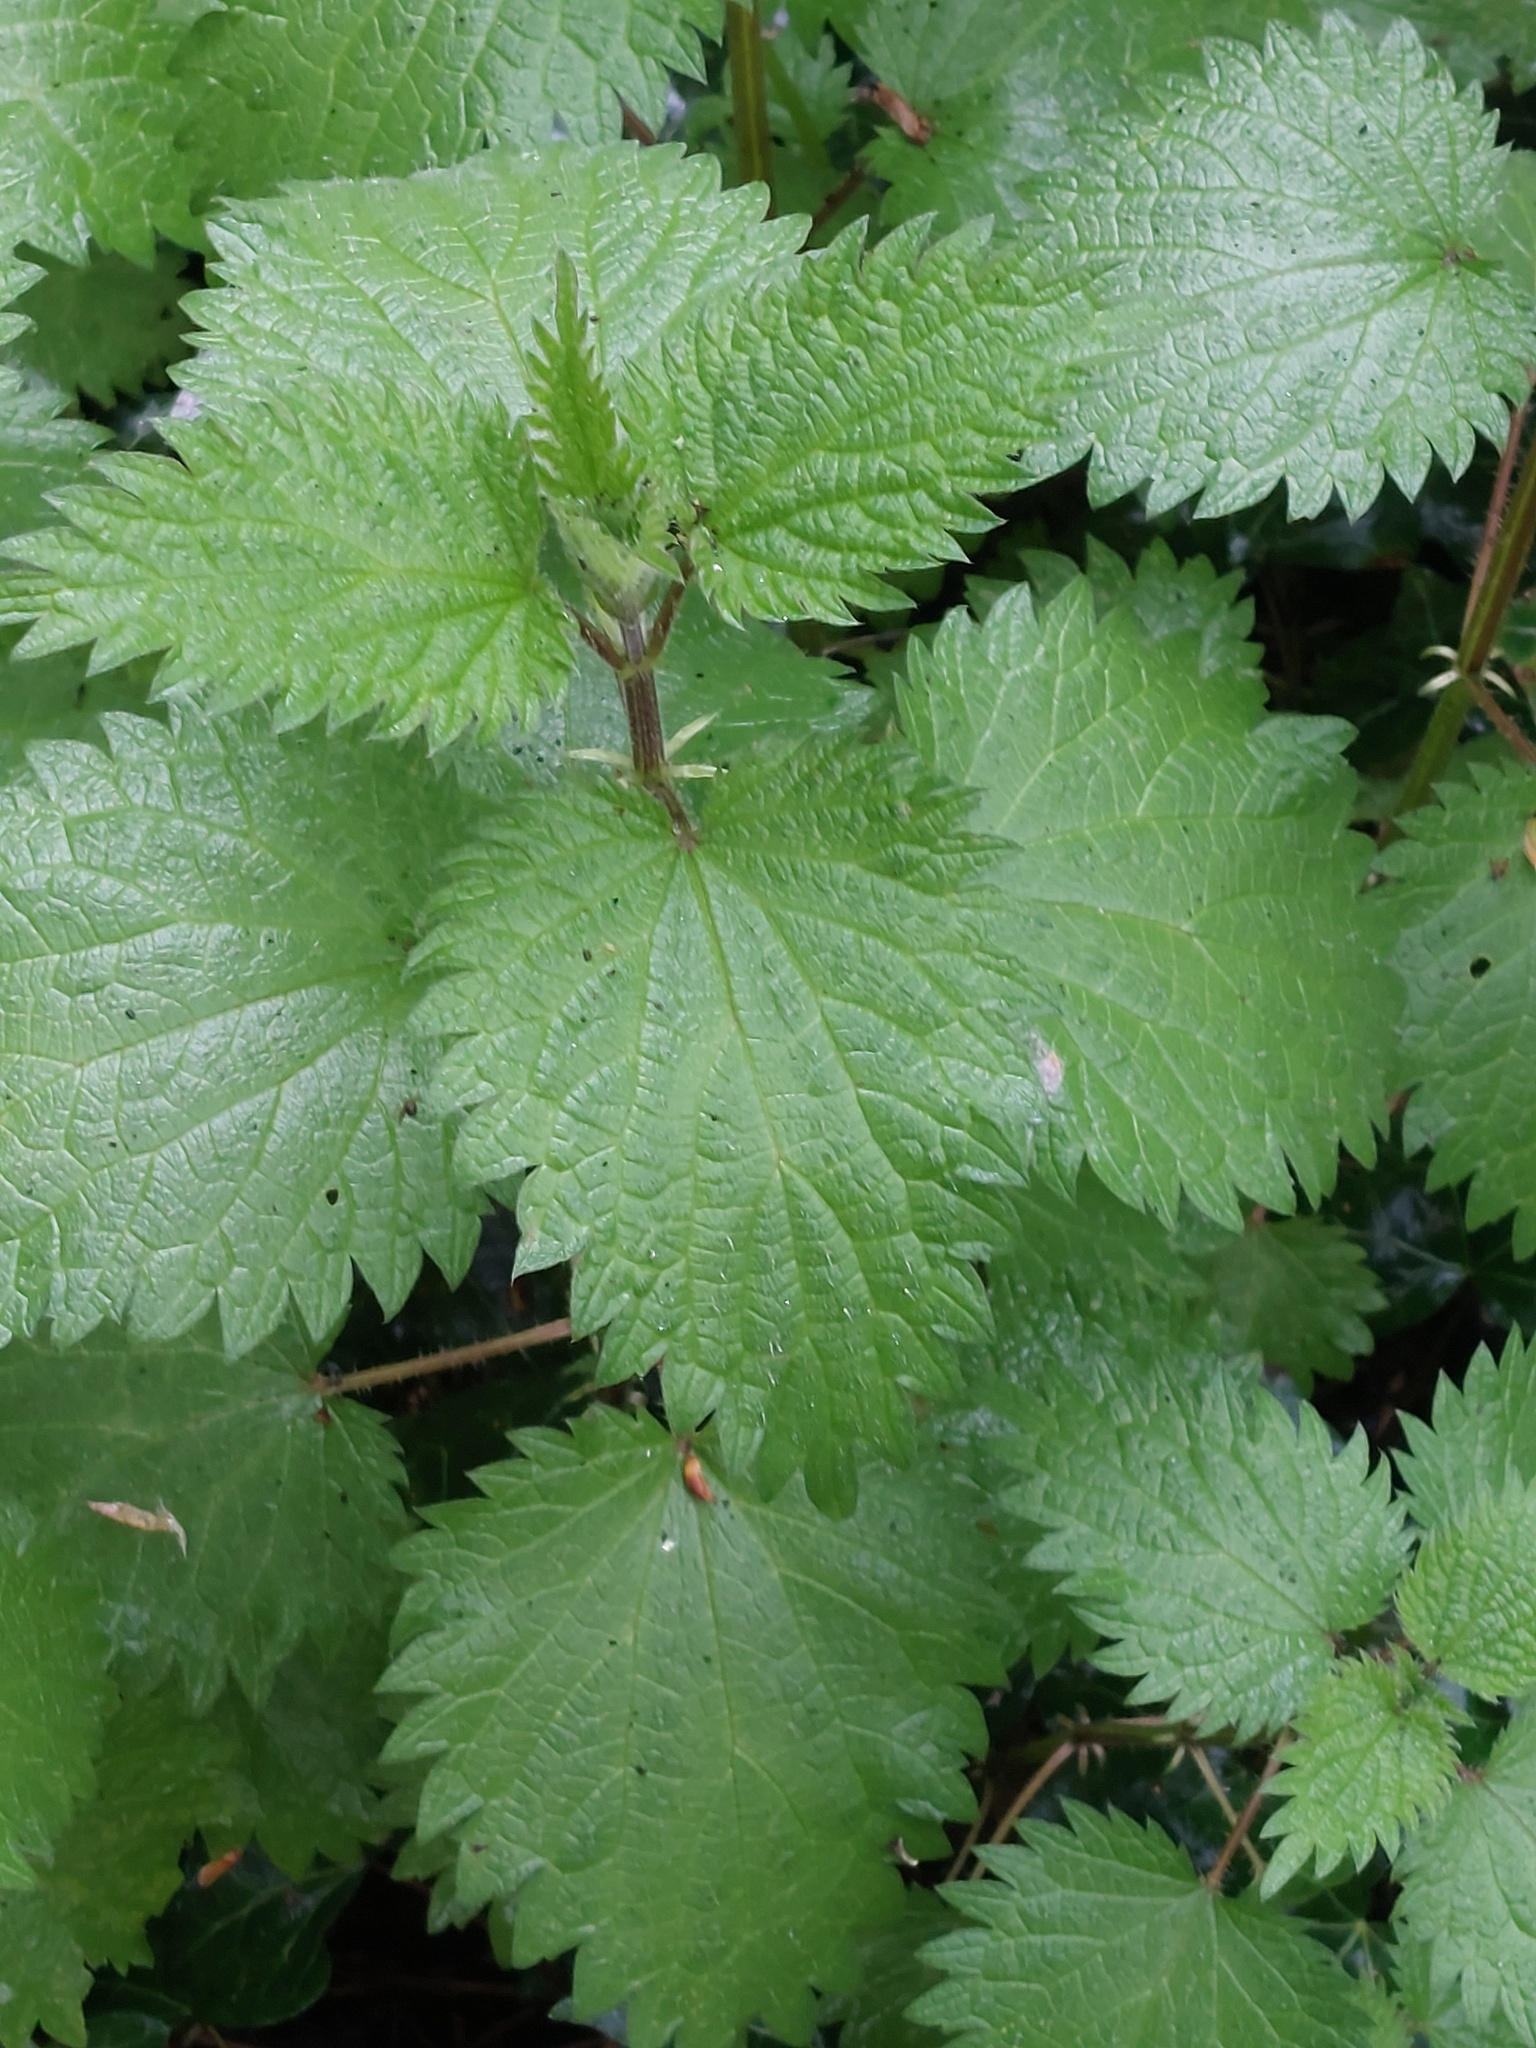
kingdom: Plantae
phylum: Tracheophyta
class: Magnoliopsida
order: Rosales
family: Urticaceae
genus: Urtica
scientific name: Urtica dioica
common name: Common nettle
